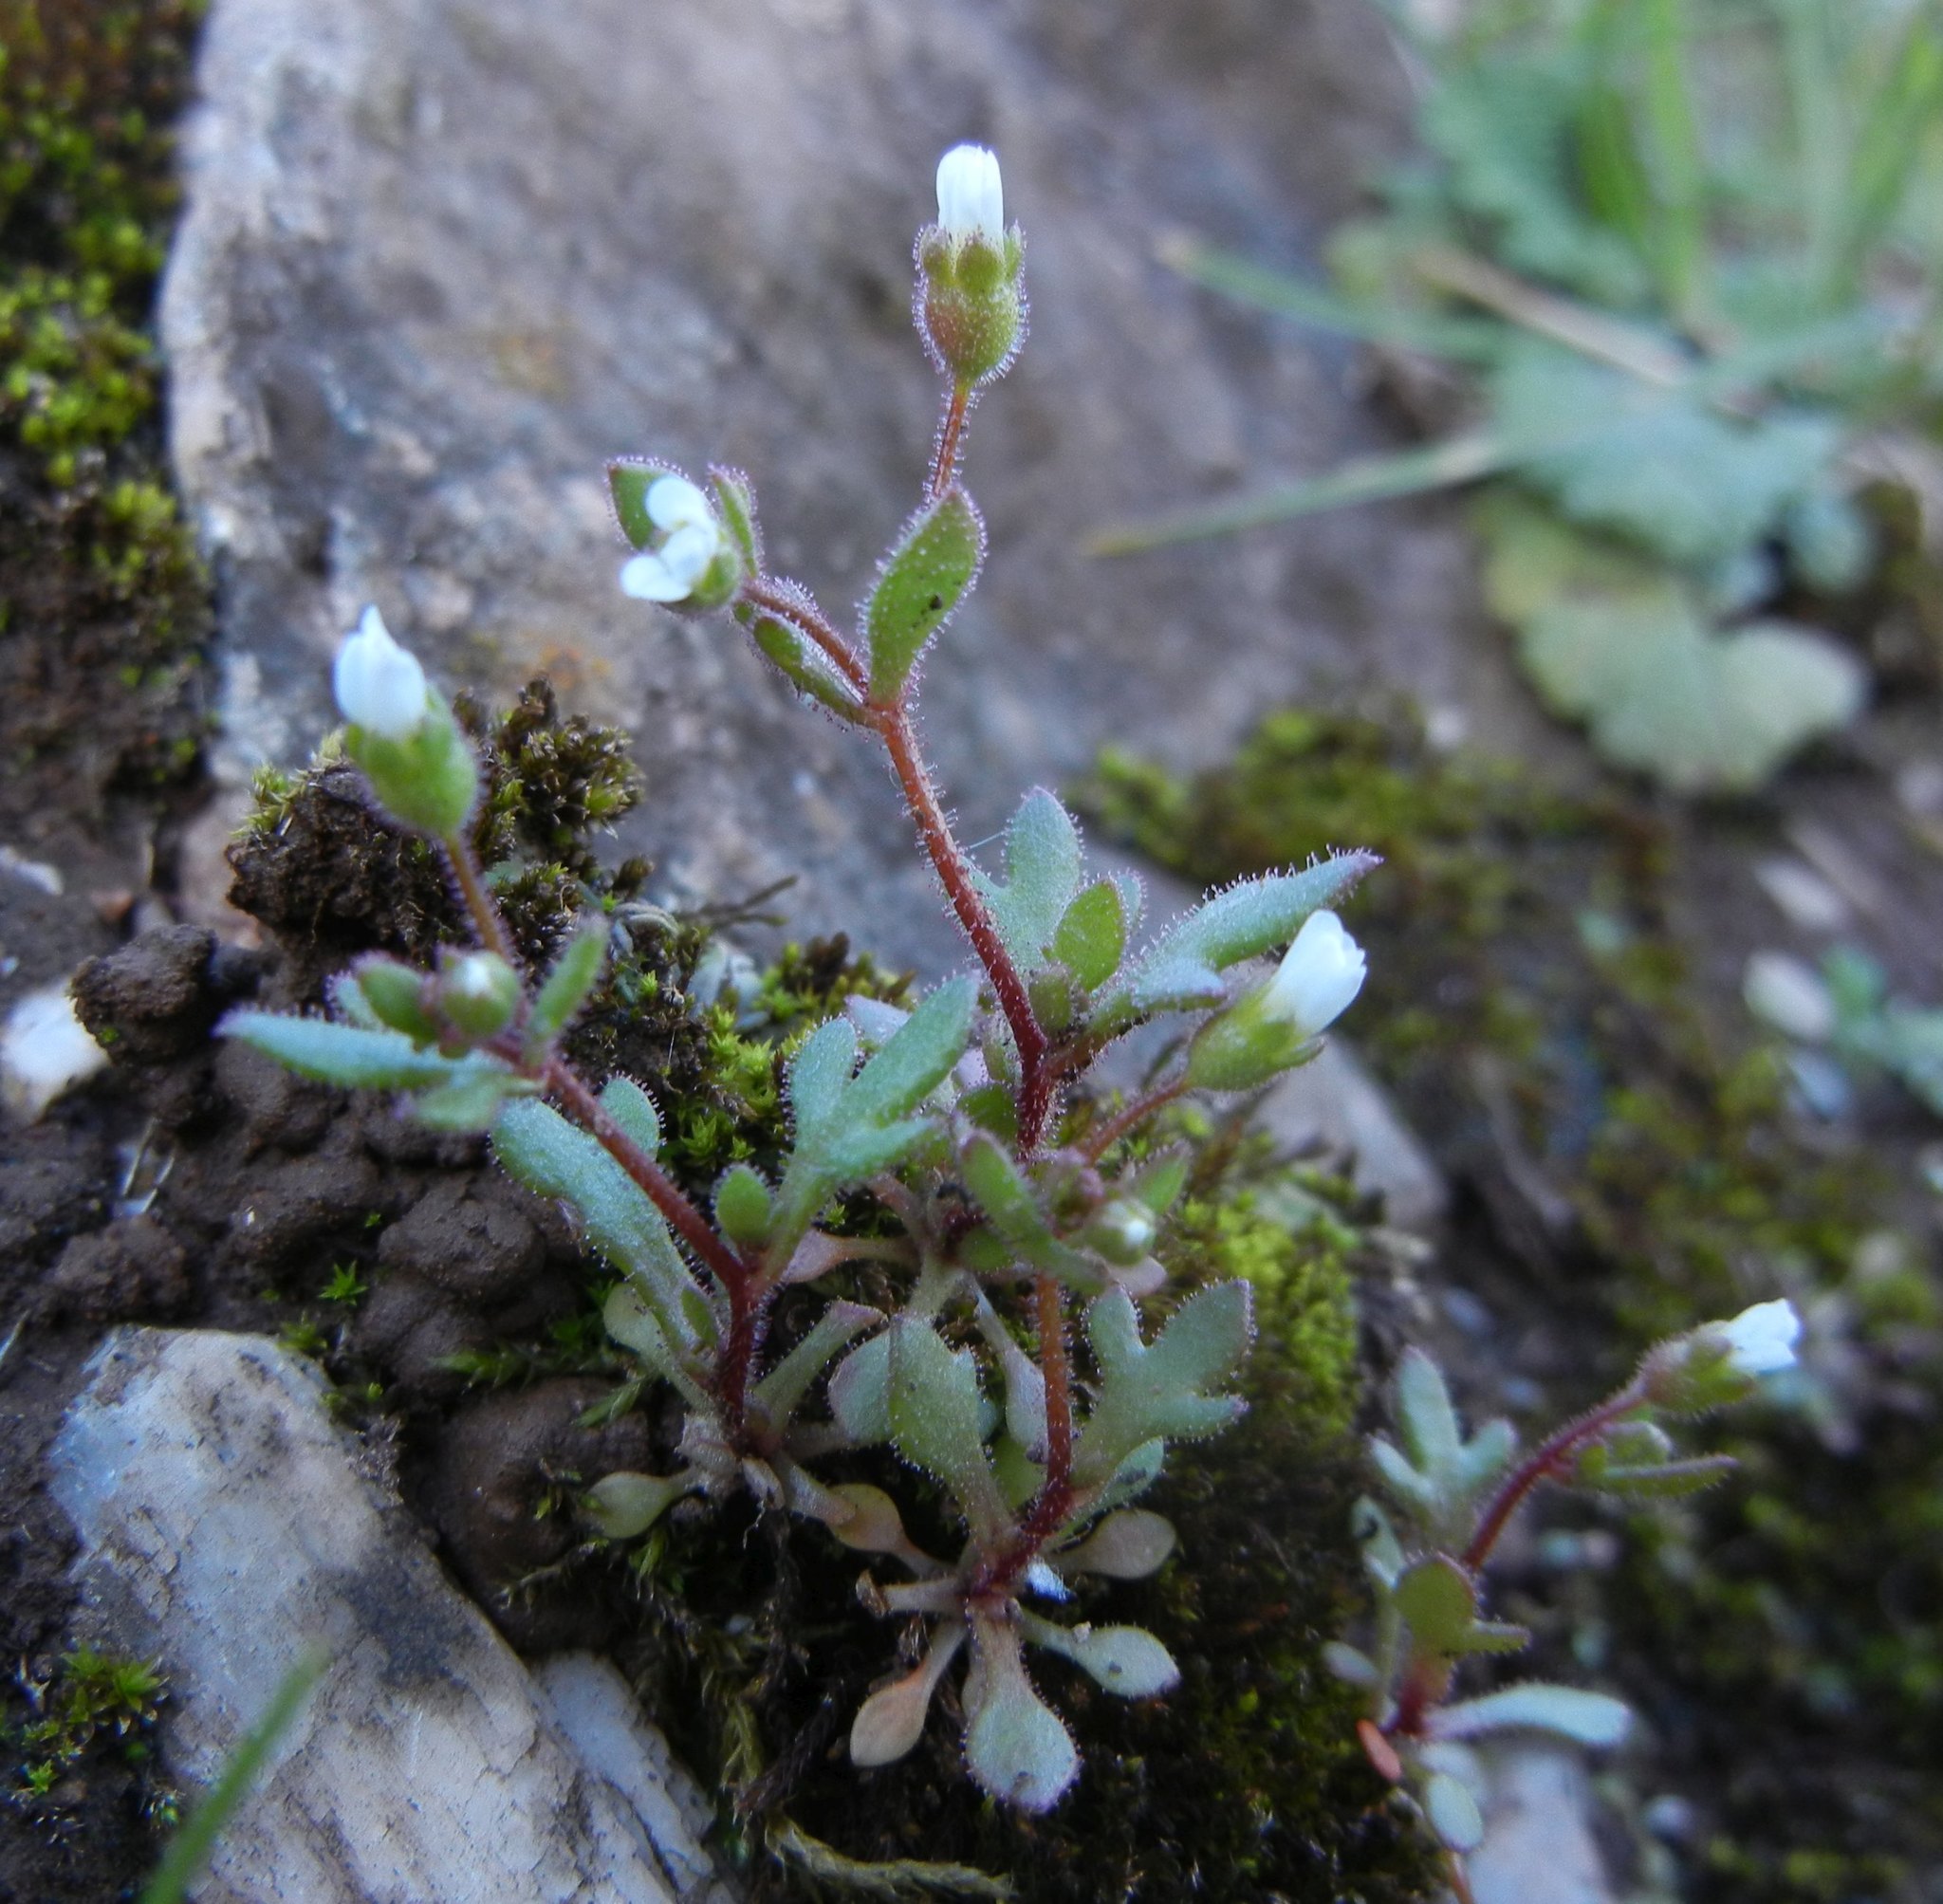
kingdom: Plantae
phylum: Tracheophyta
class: Magnoliopsida
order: Saxifragales
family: Saxifragaceae
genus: Saxifraga
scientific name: Saxifraga tridactylites
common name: Rue-leaved saxifrage
